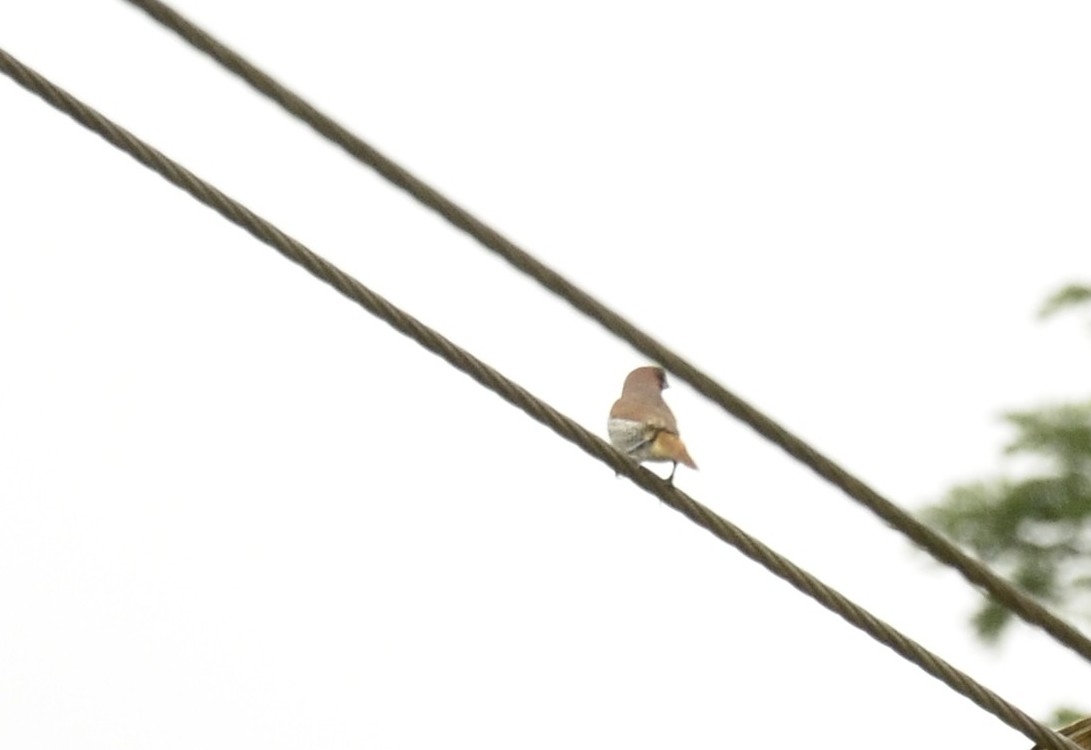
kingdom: Animalia
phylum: Chordata
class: Aves
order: Passeriformes
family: Estrildidae
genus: Lonchura
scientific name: Lonchura punctulata
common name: Scaly-breasted munia
